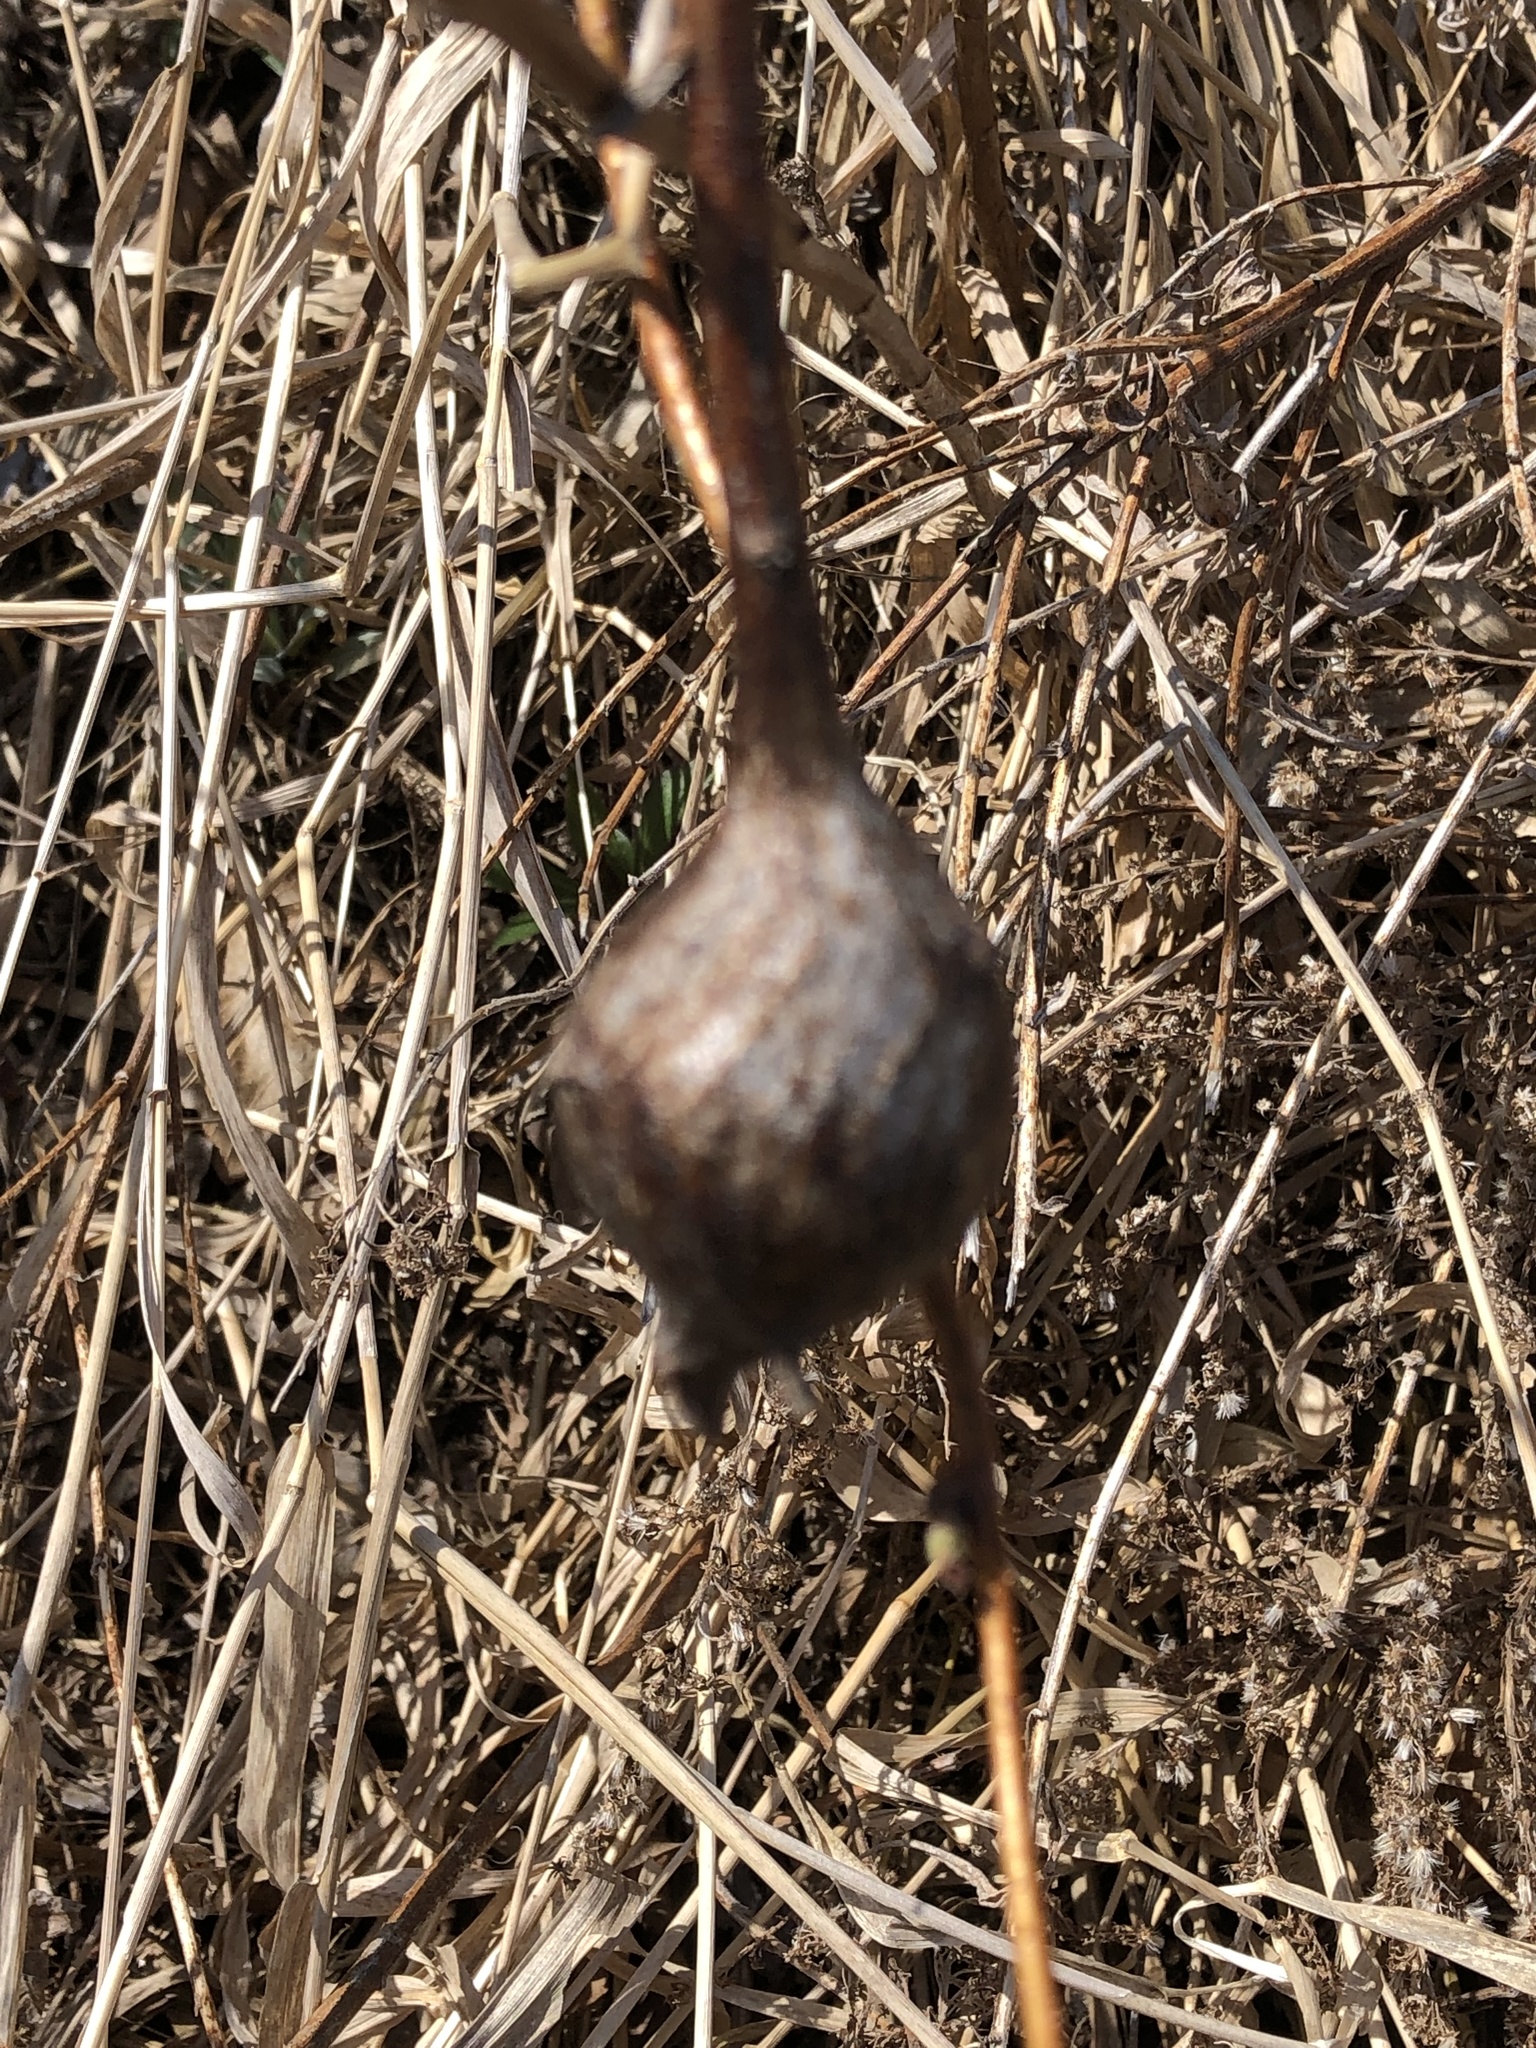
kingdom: Animalia
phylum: Arthropoda
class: Insecta
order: Diptera
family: Tephritidae
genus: Eurosta
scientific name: Eurosta solidaginis
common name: Goldenrod gall fly
